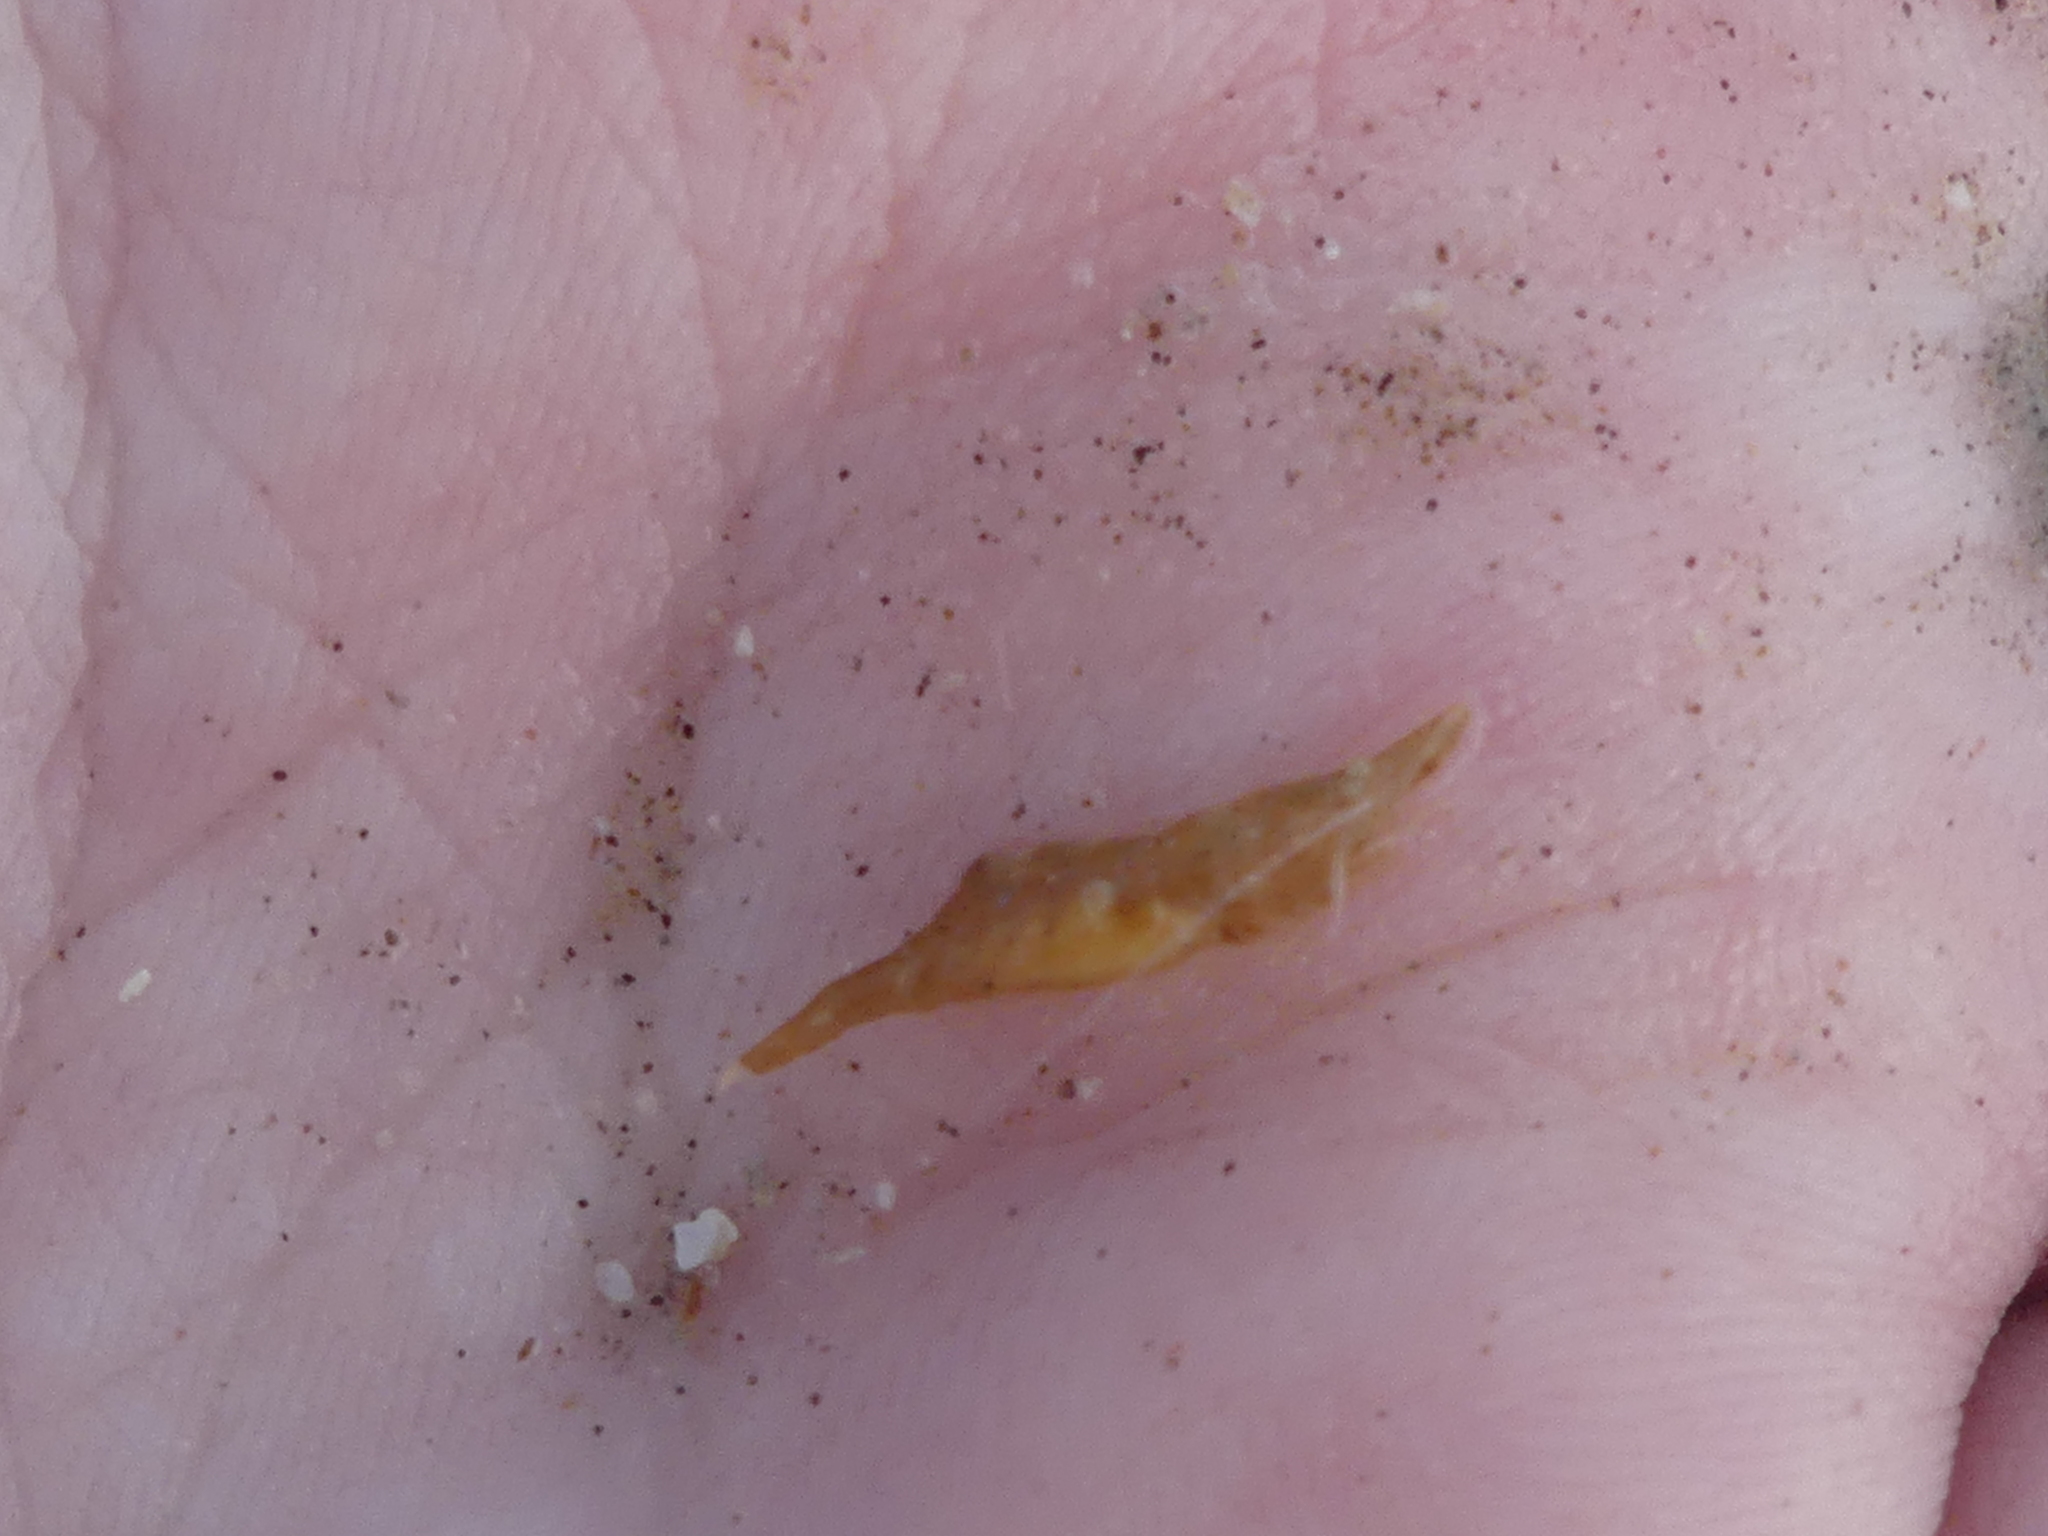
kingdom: Animalia
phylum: Arthropoda
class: Malacostraca
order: Decapoda
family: Hippolytidae
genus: Latreutes
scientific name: Latreutes fucorum
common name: Slender sargassum shrimp
